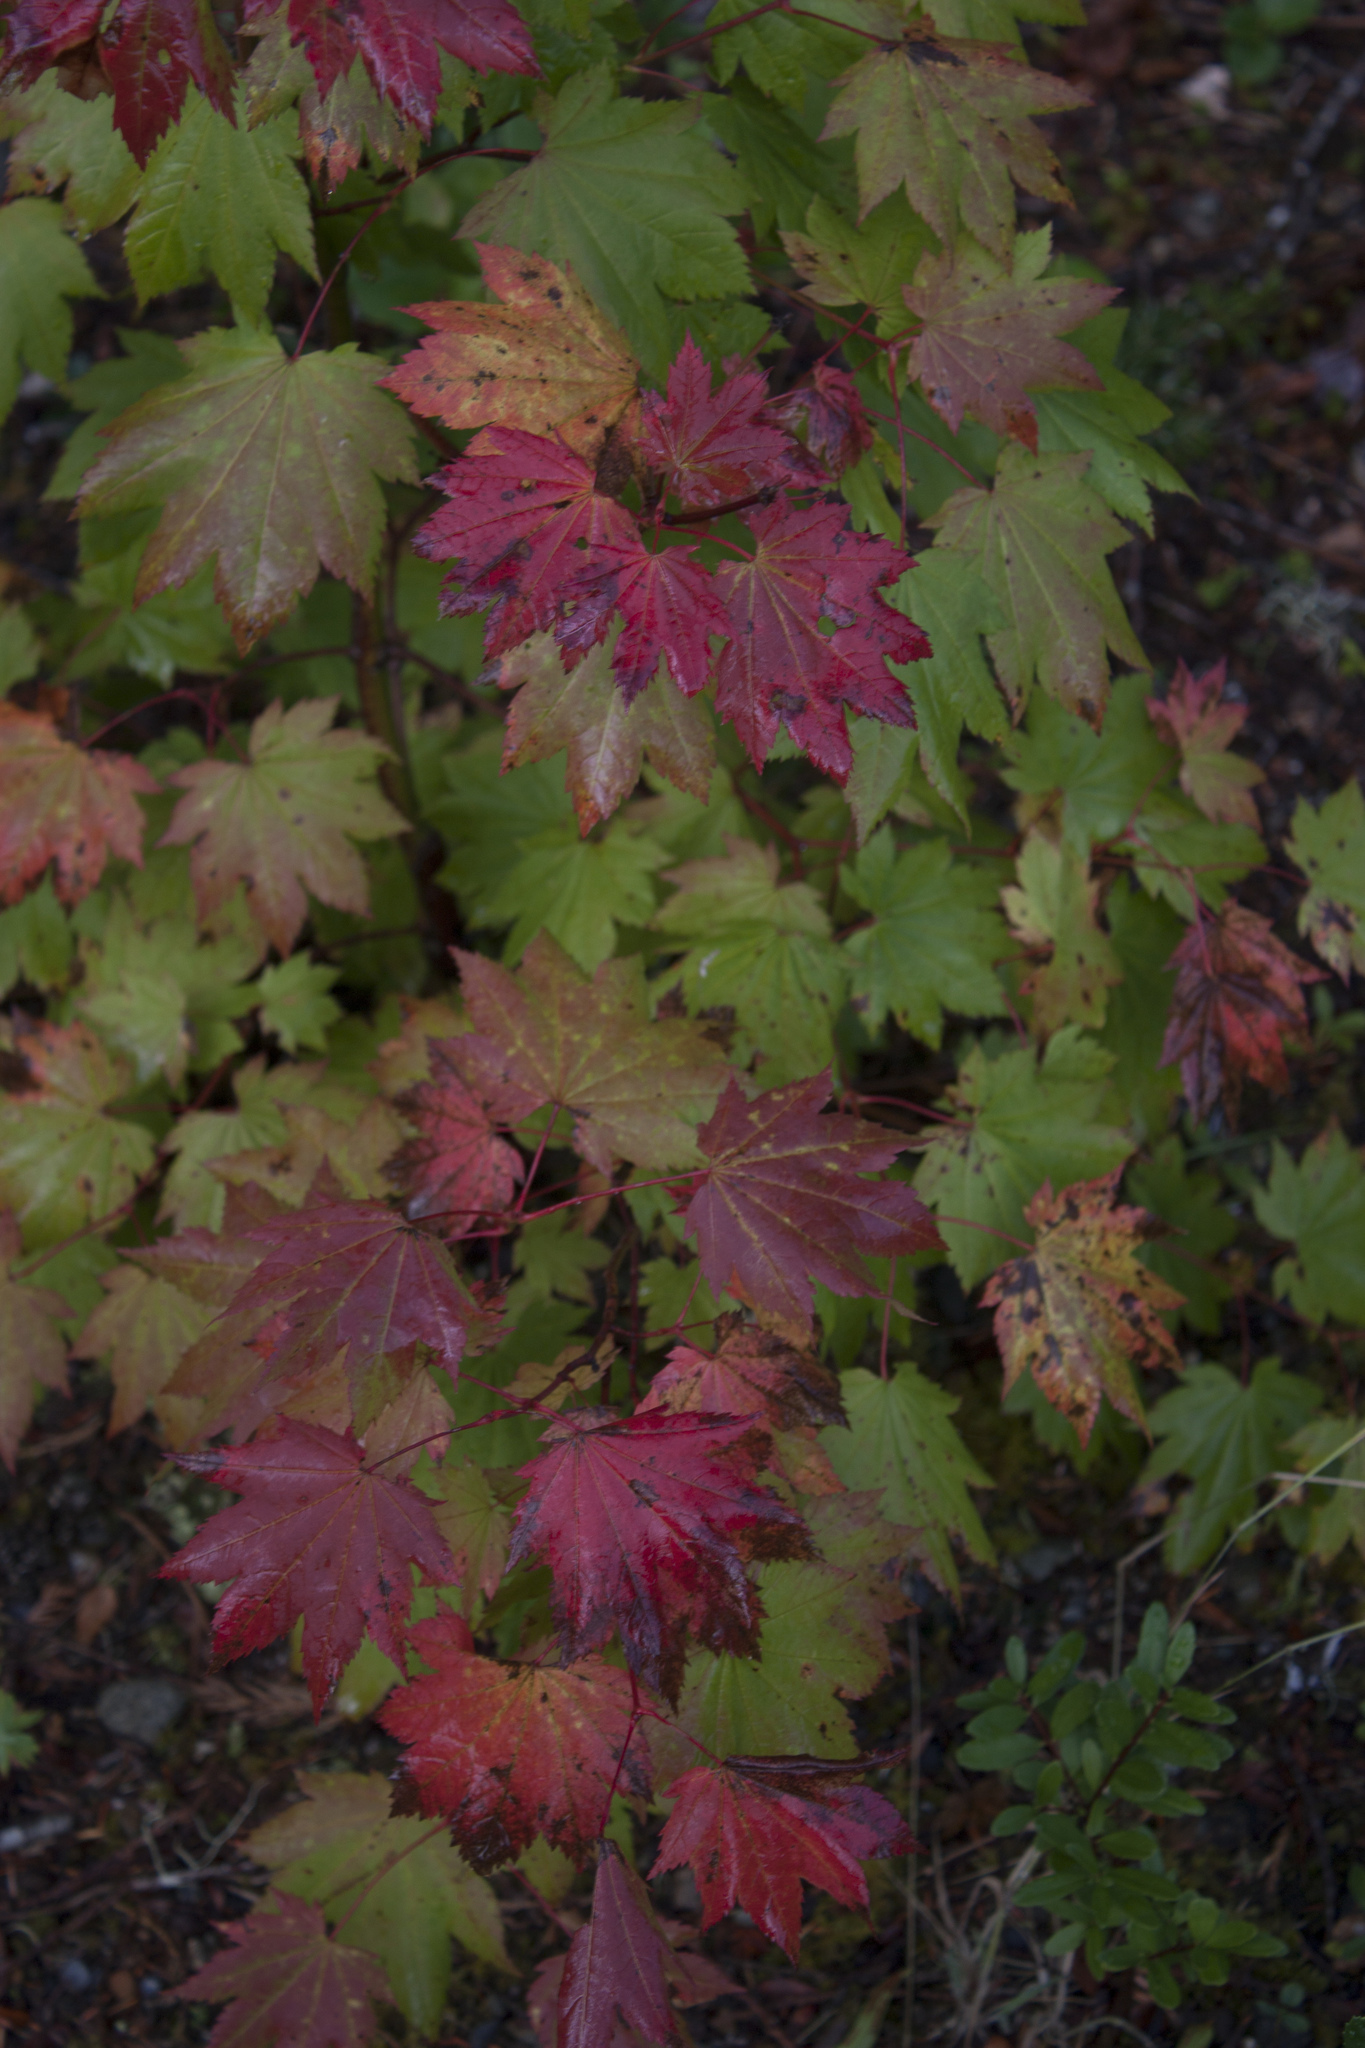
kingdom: Plantae
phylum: Tracheophyta
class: Magnoliopsida
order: Sapindales
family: Sapindaceae
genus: Acer
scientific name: Acer circinatum
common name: Vine maple
